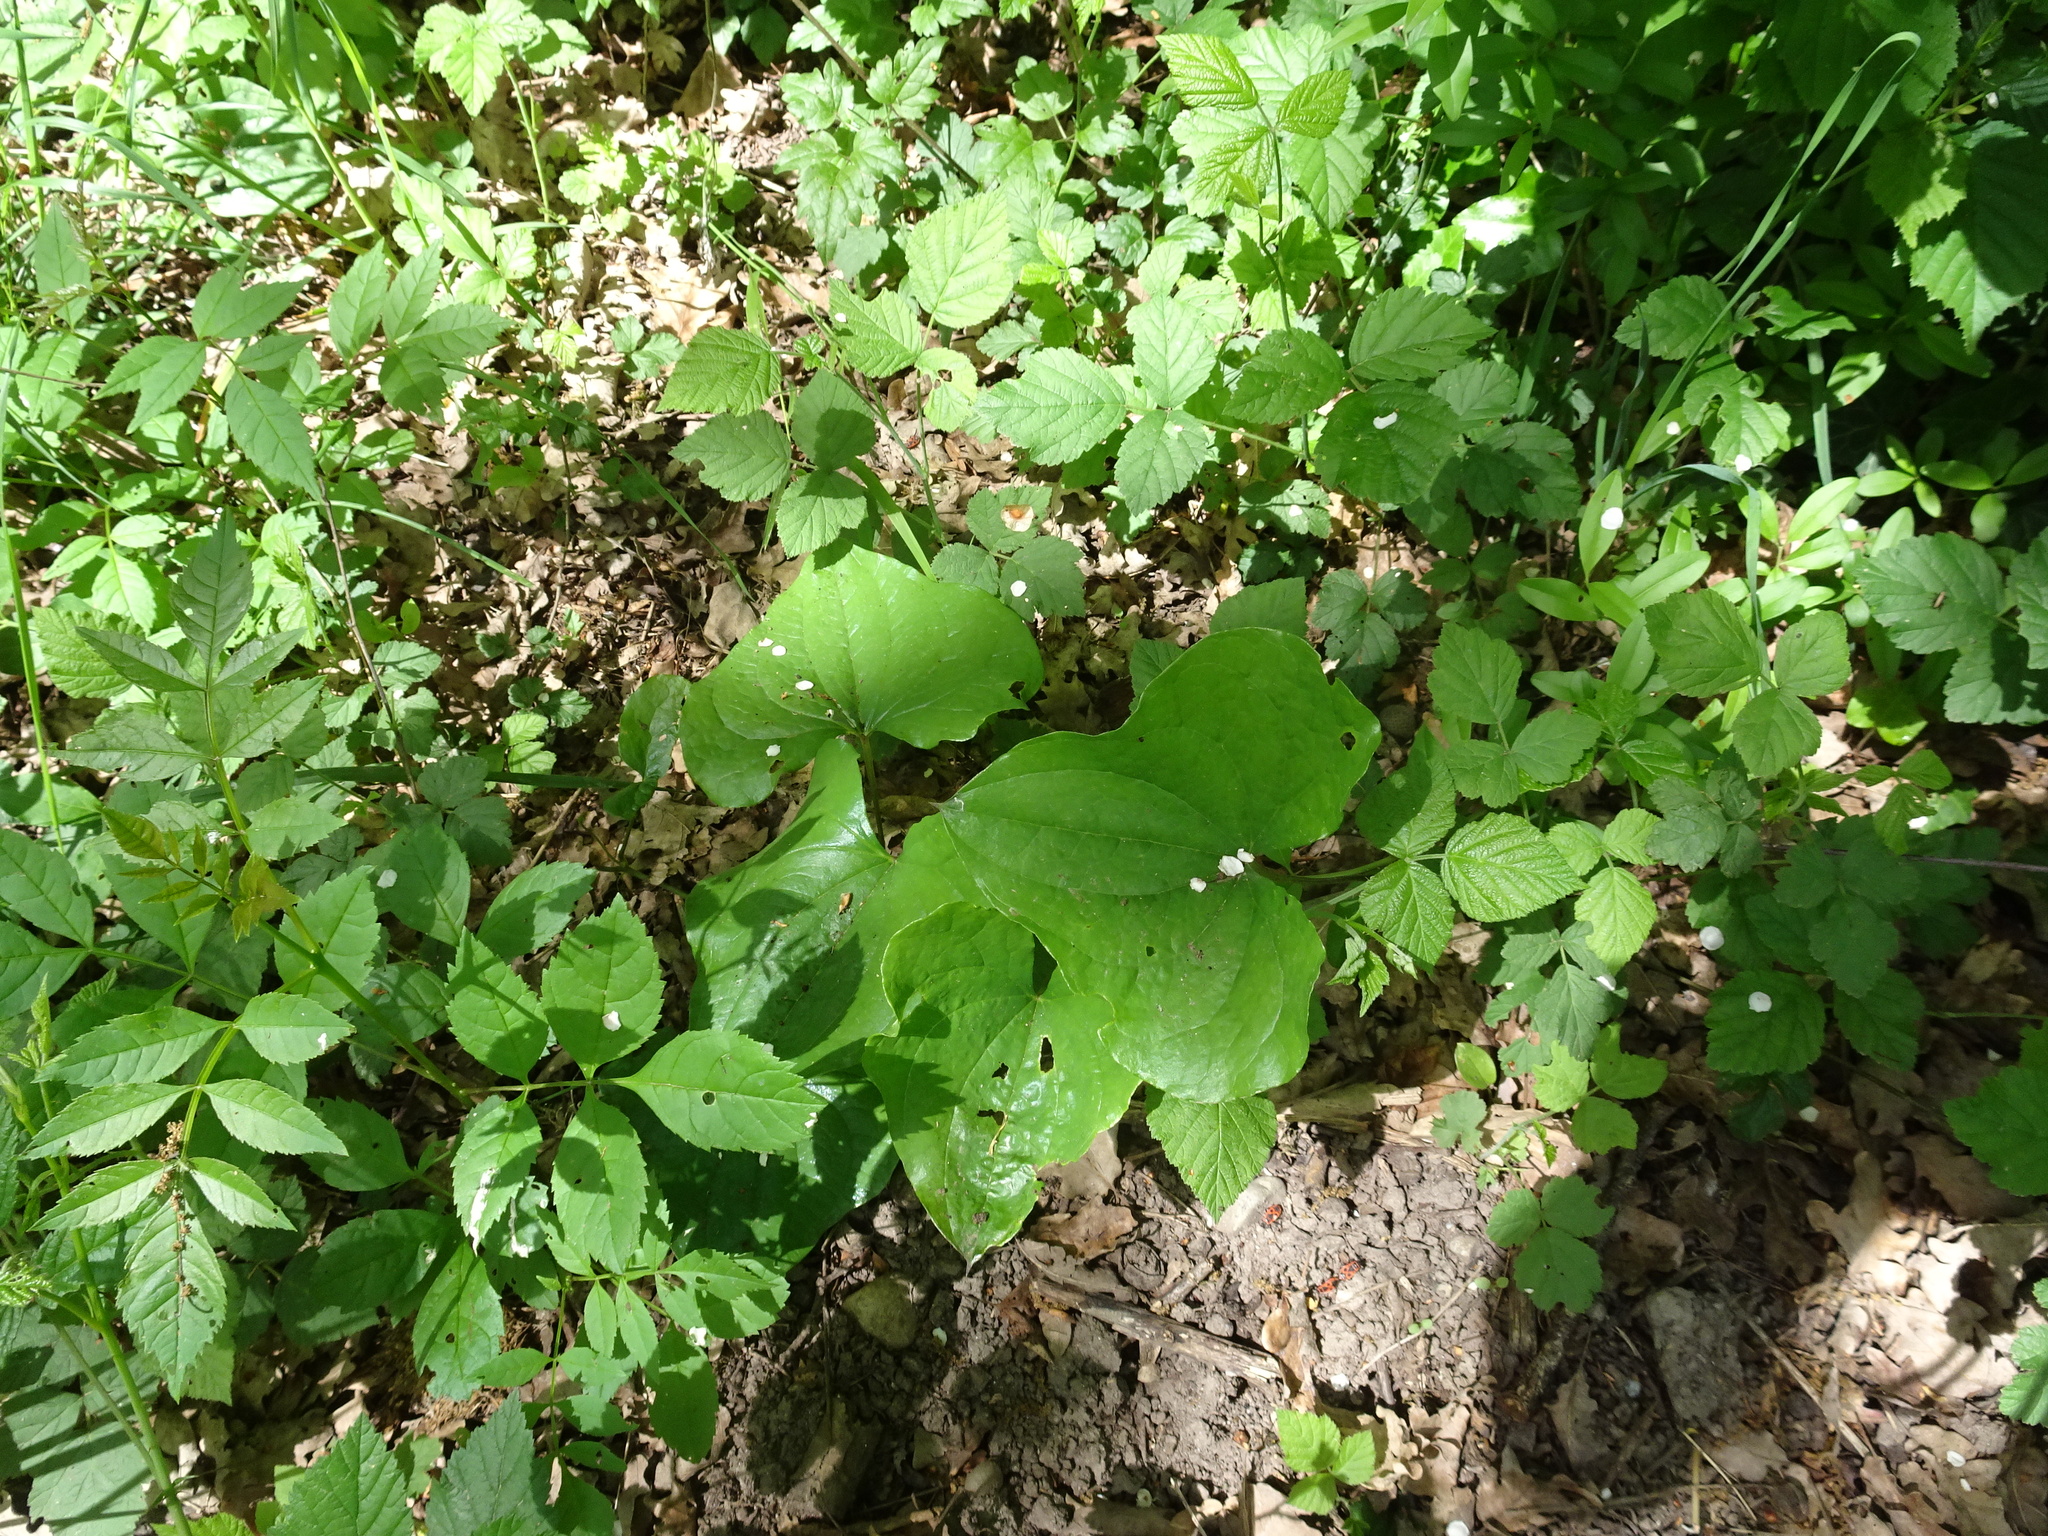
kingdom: Plantae
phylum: Tracheophyta
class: Liliopsida
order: Dioscoreales
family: Dioscoreaceae
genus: Dioscorea
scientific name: Dioscorea communis
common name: Black-bindweed
